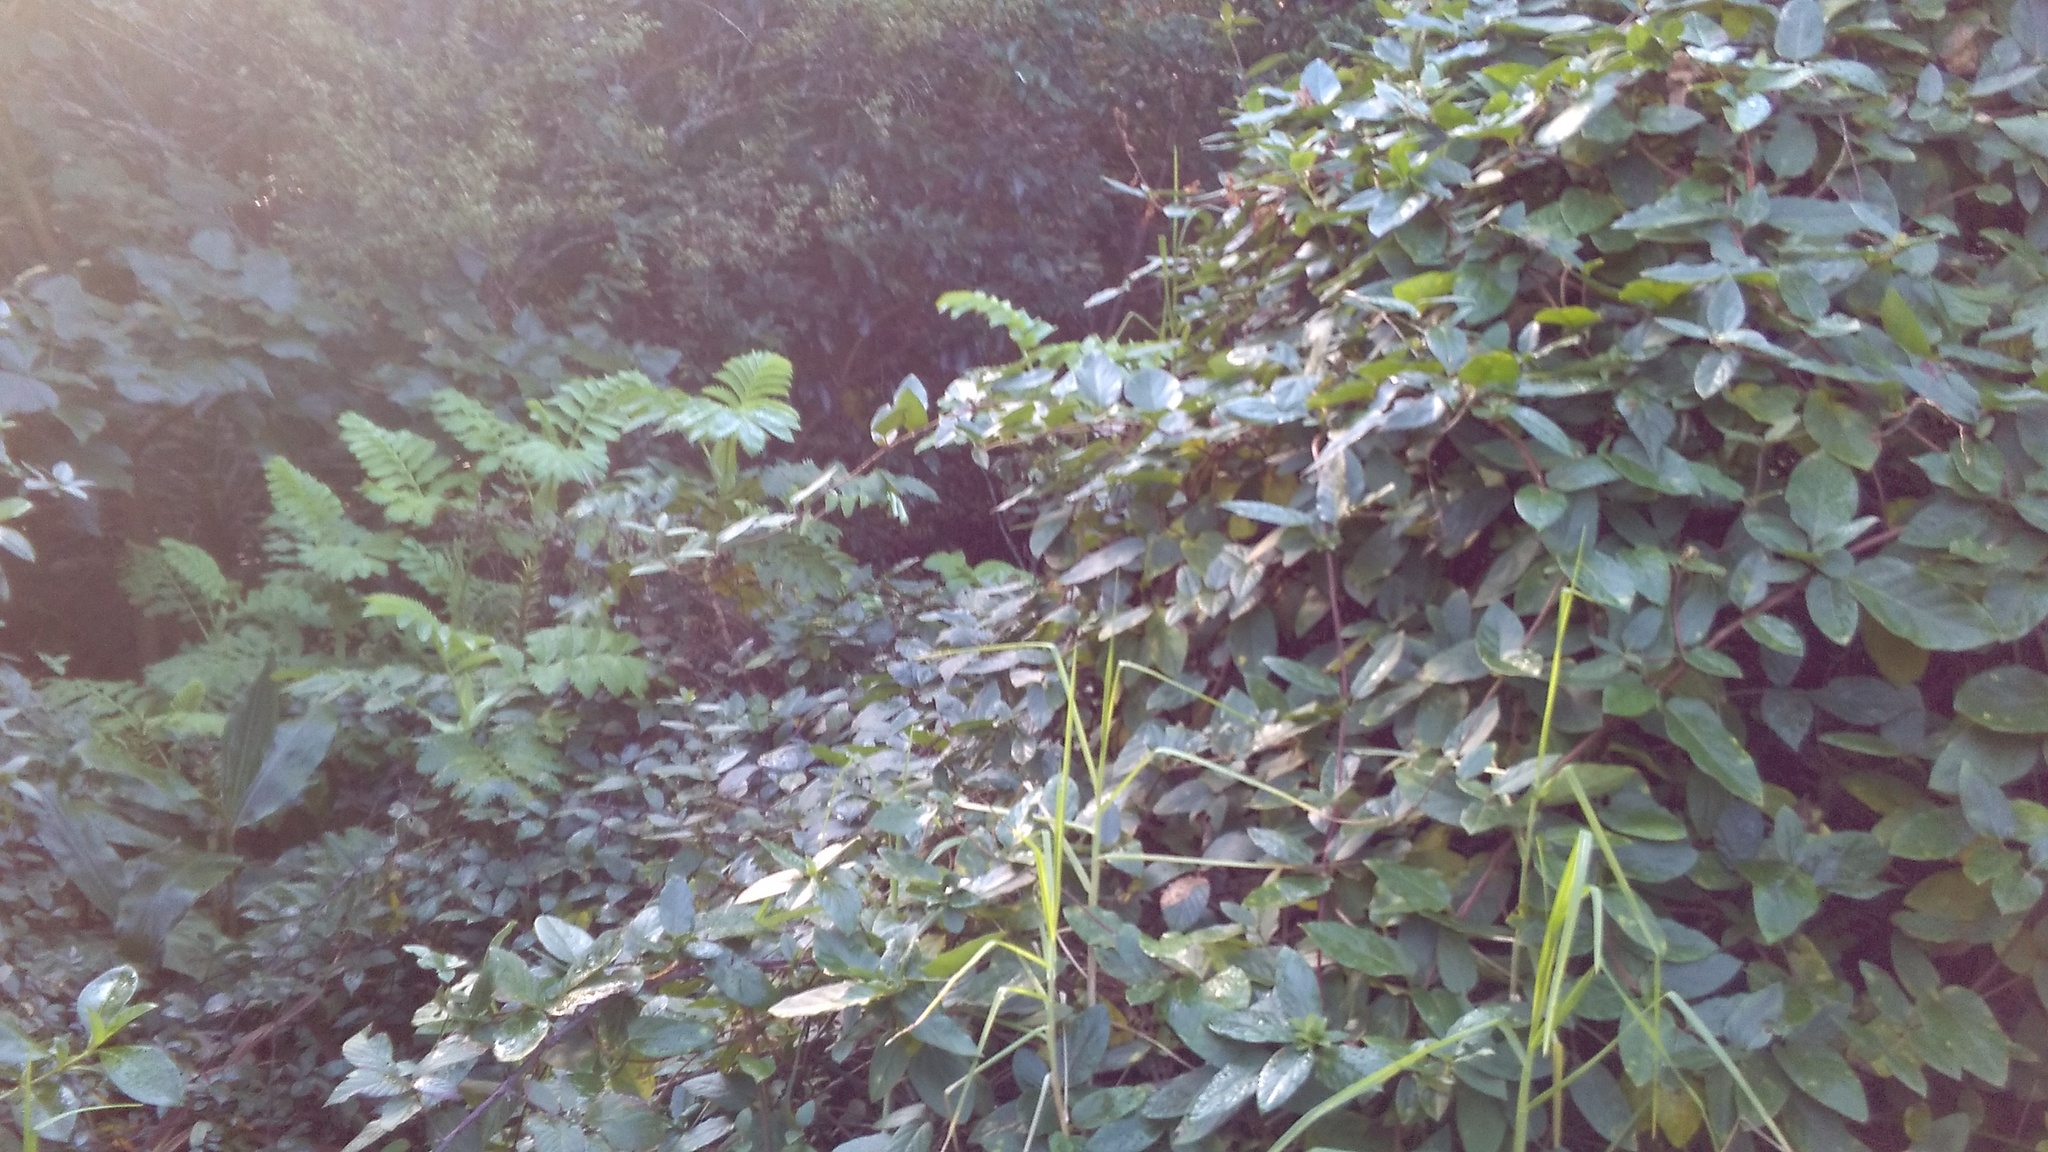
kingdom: Plantae
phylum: Tracheophyta
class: Magnoliopsida
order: Dipsacales
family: Caprifoliaceae
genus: Lonicera
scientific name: Lonicera japonica
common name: Japanese honeysuckle
